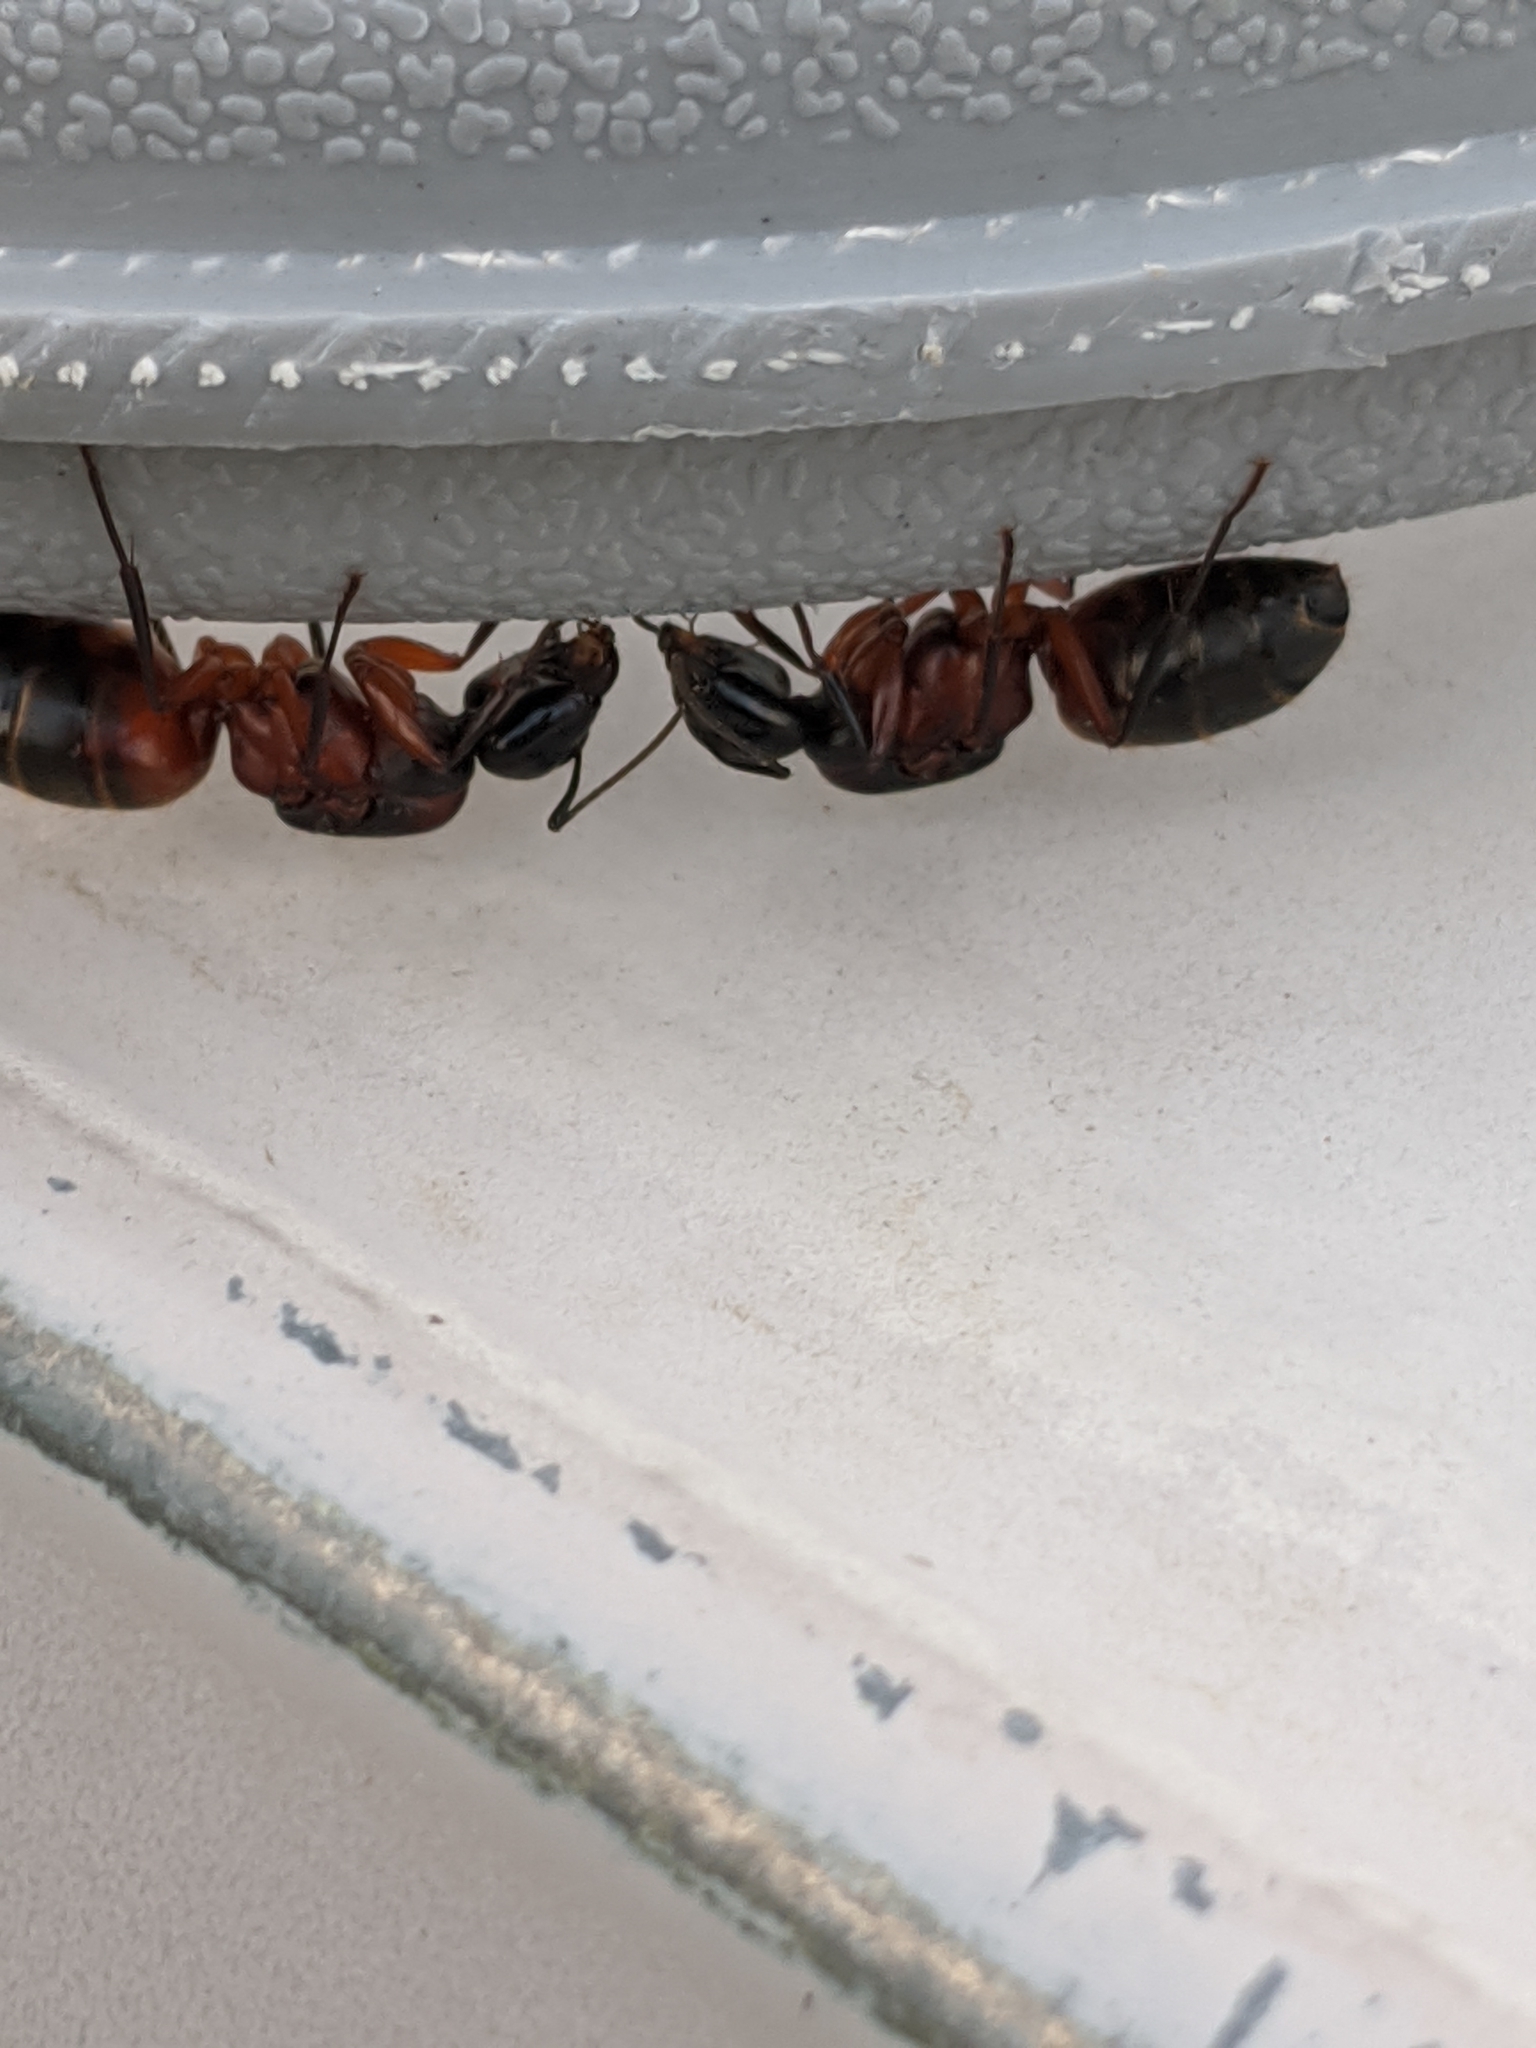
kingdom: Animalia
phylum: Arthropoda
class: Insecta
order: Hymenoptera
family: Formicidae
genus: Camponotus
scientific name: Camponotus chromaiodes
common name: Red carpenter ant
